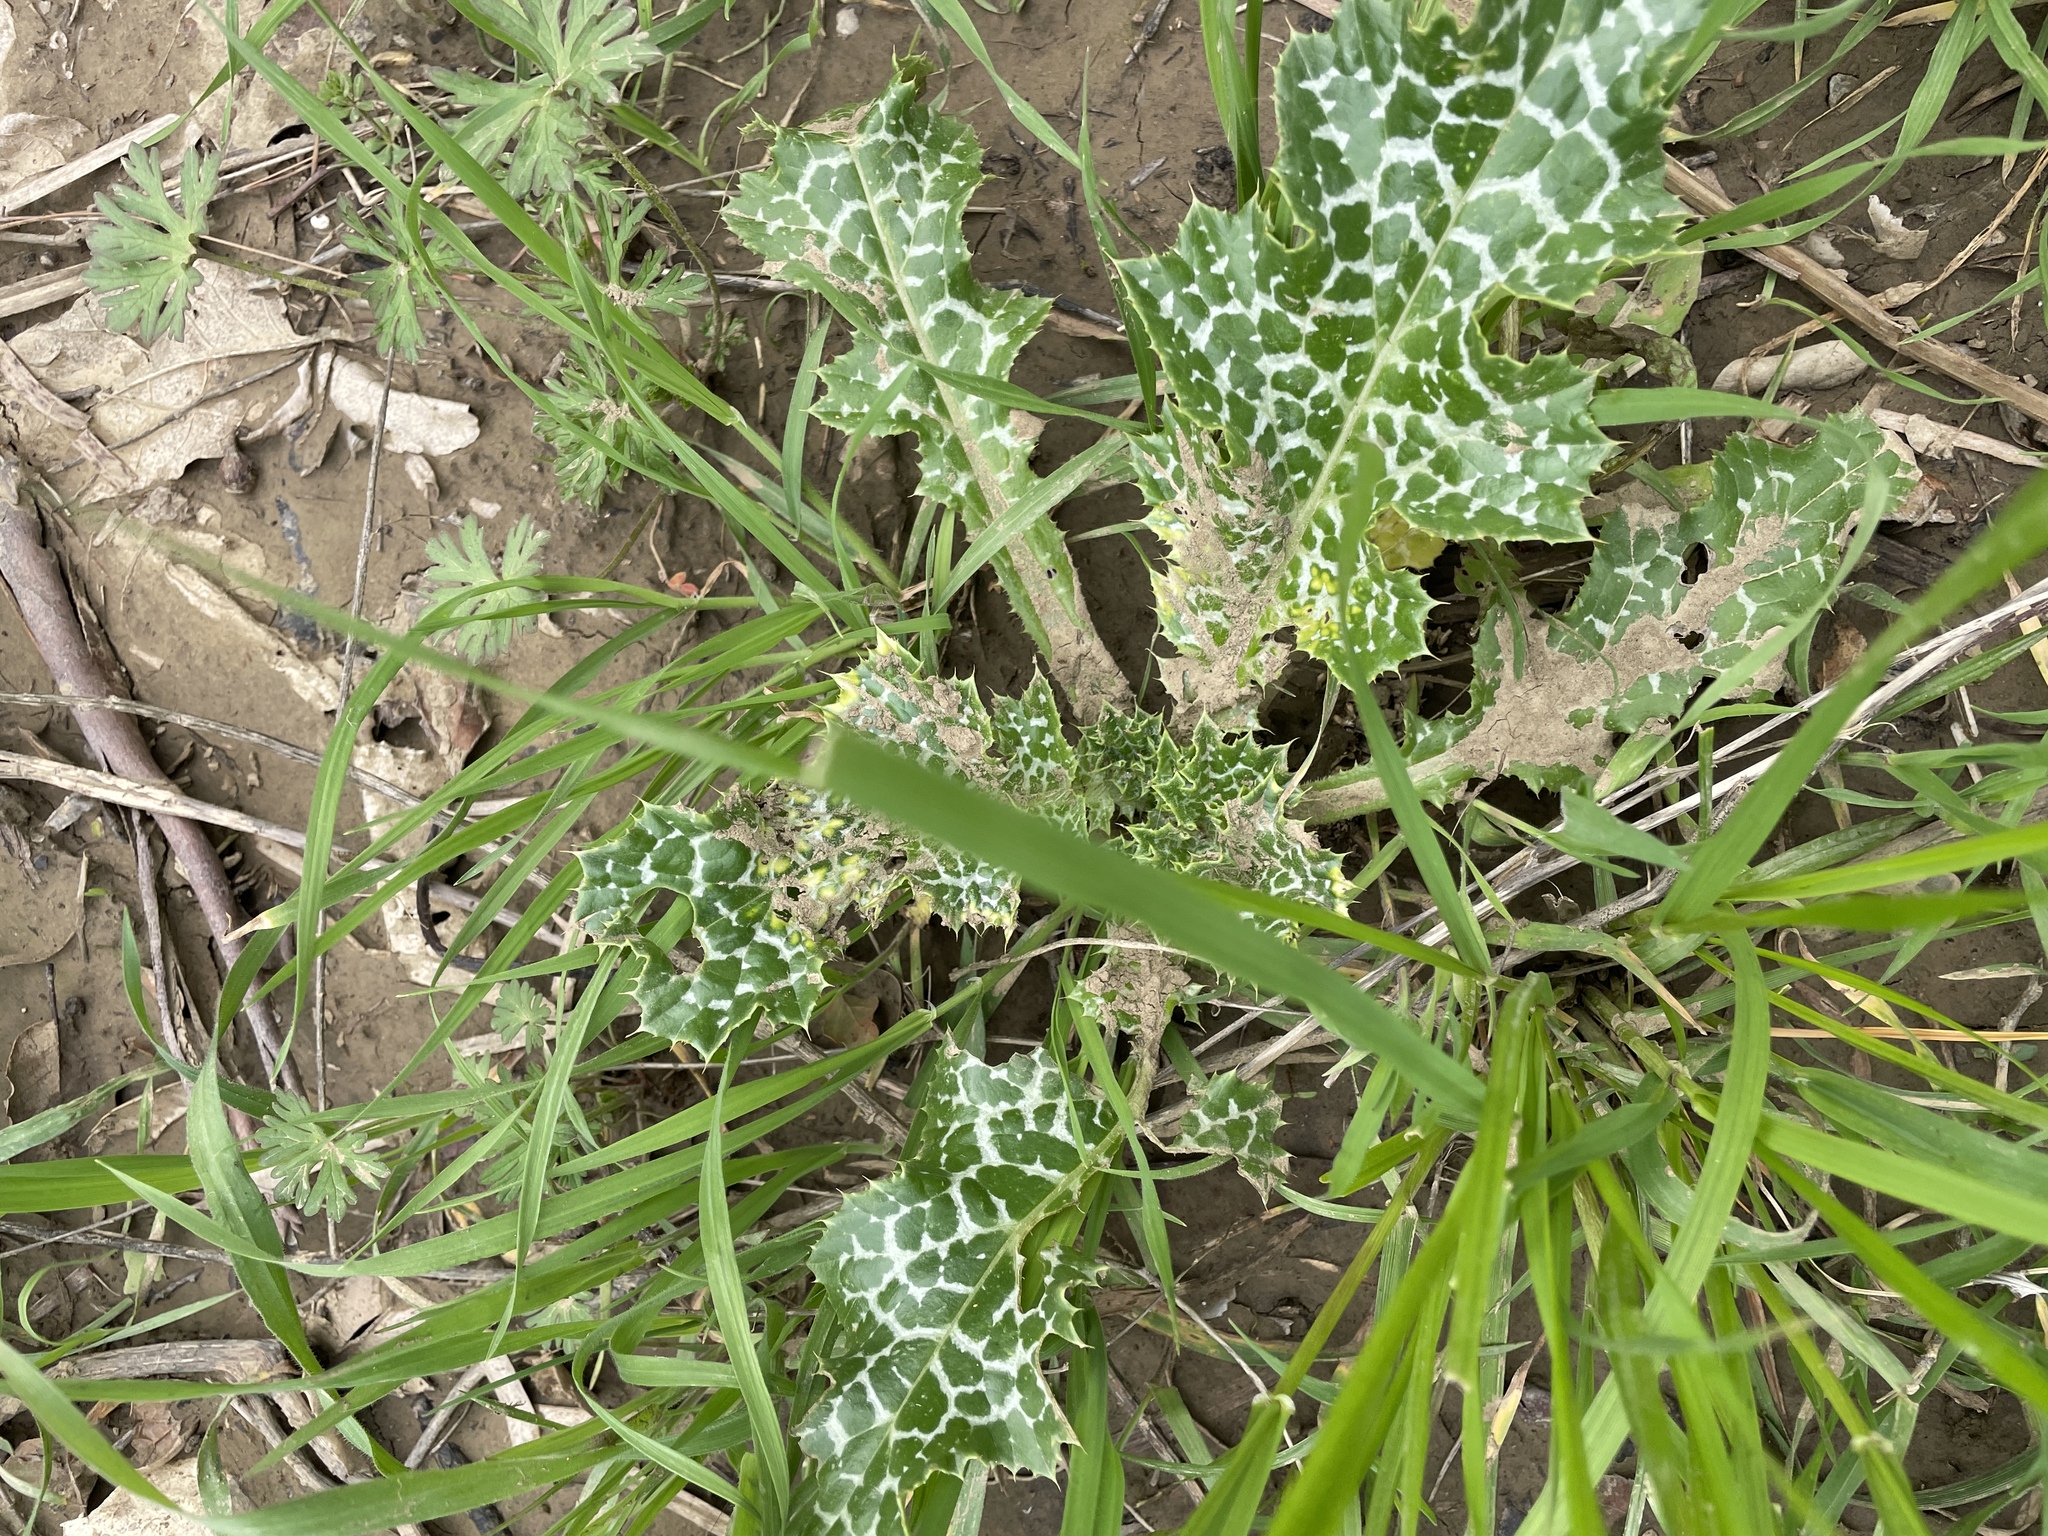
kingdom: Plantae
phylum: Tracheophyta
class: Magnoliopsida
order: Asterales
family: Asteraceae
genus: Silybum
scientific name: Silybum marianum
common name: Milk thistle
